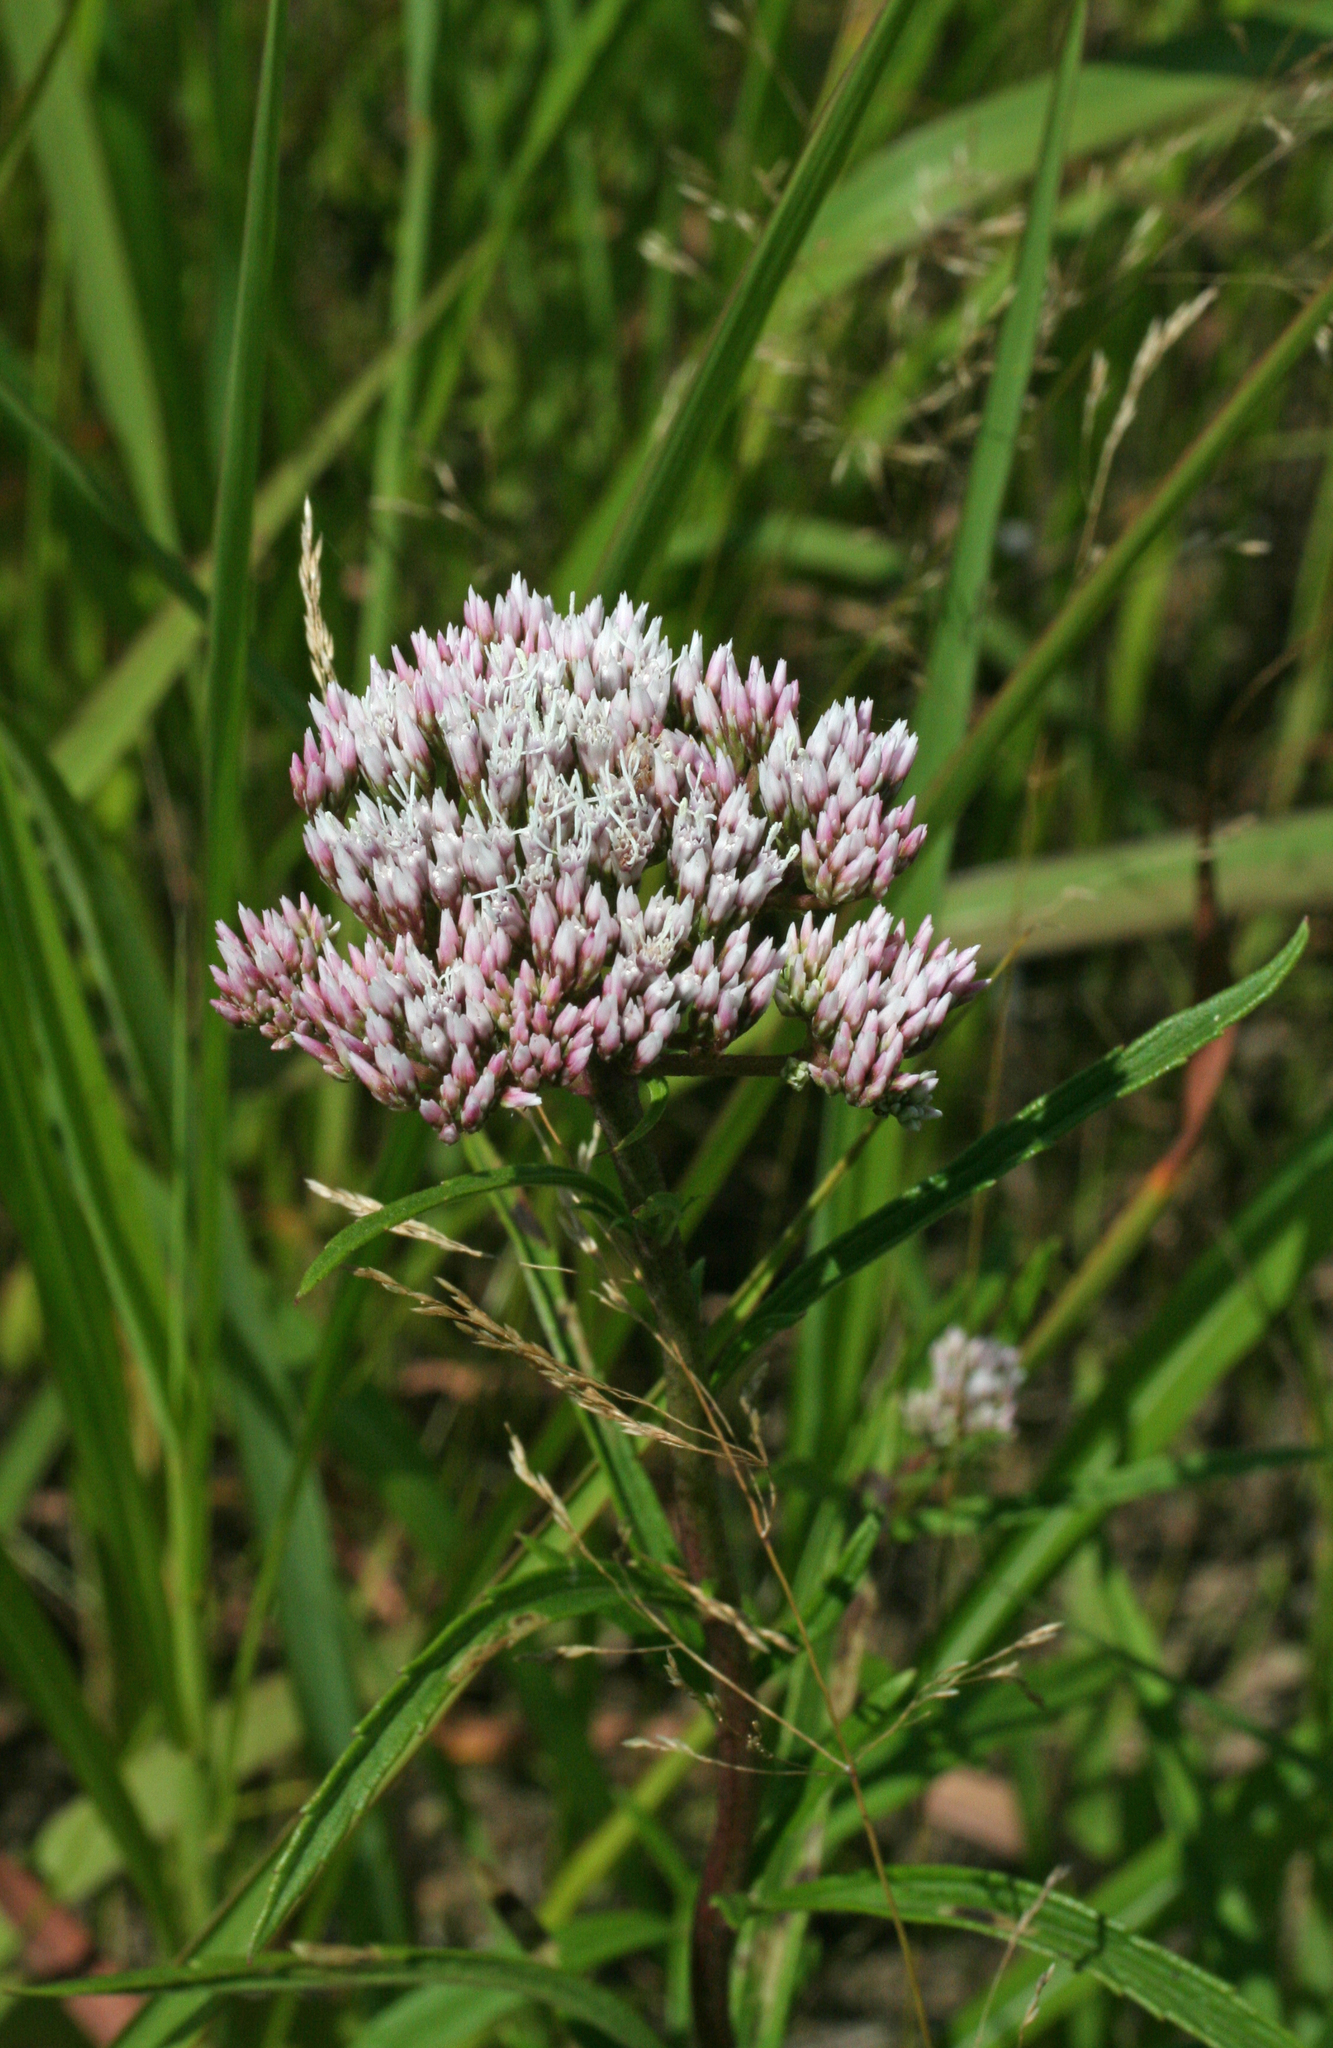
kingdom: Plantae
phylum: Tracheophyta
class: Magnoliopsida
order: Asterales
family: Asteraceae
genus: Eupatorium
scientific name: Eupatorium lindleyanum
